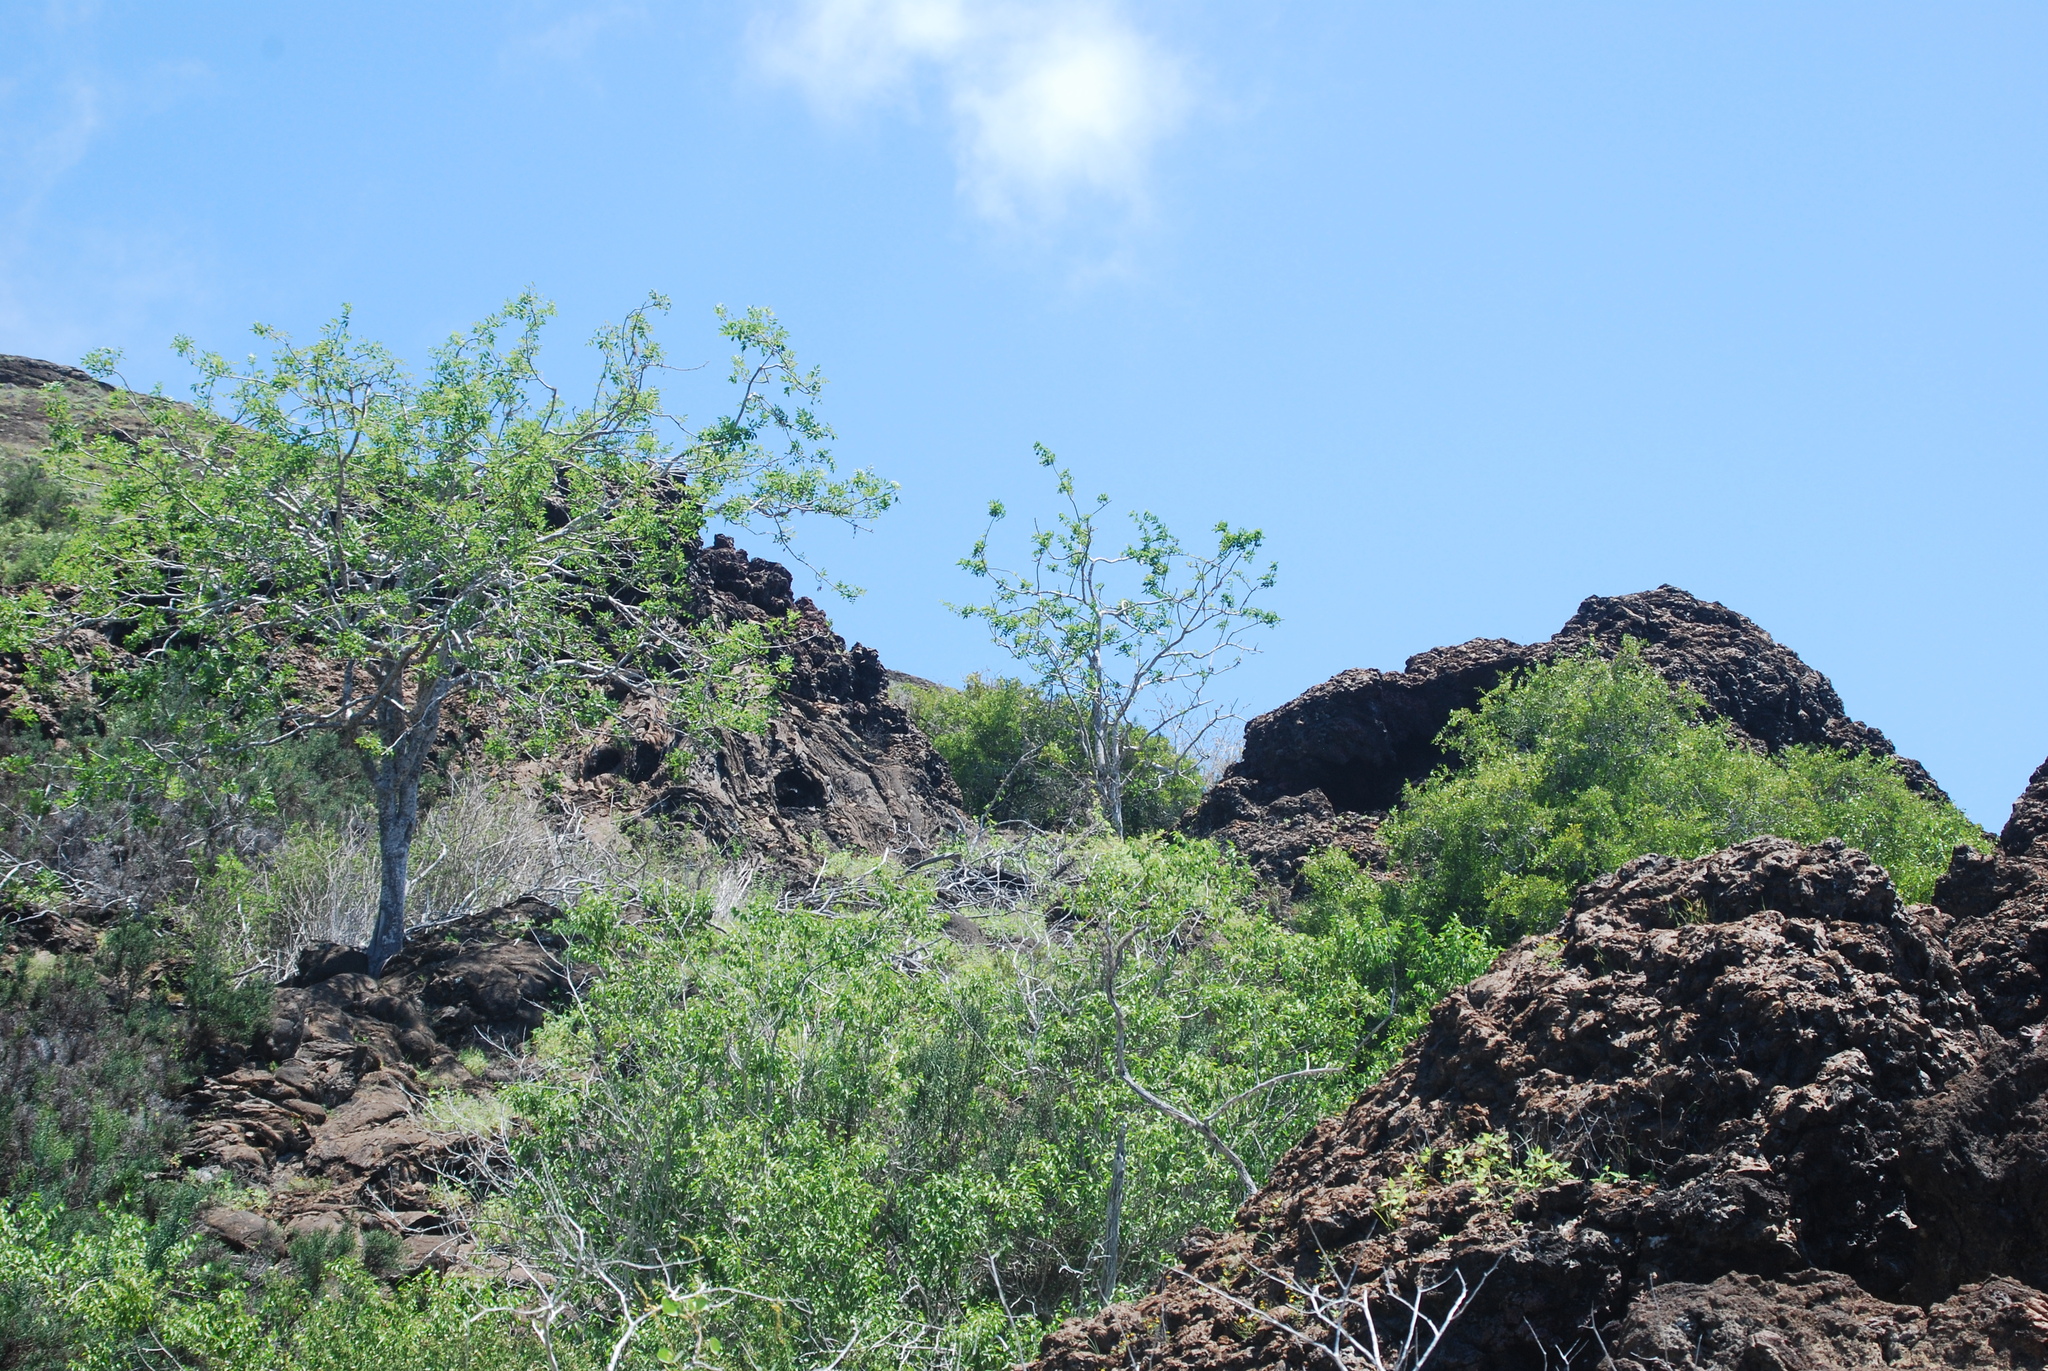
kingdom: Plantae
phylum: Tracheophyta
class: Magnoliopsida
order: Sapindales
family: Burseraceae
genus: Bursera
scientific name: Bursera graveolens
